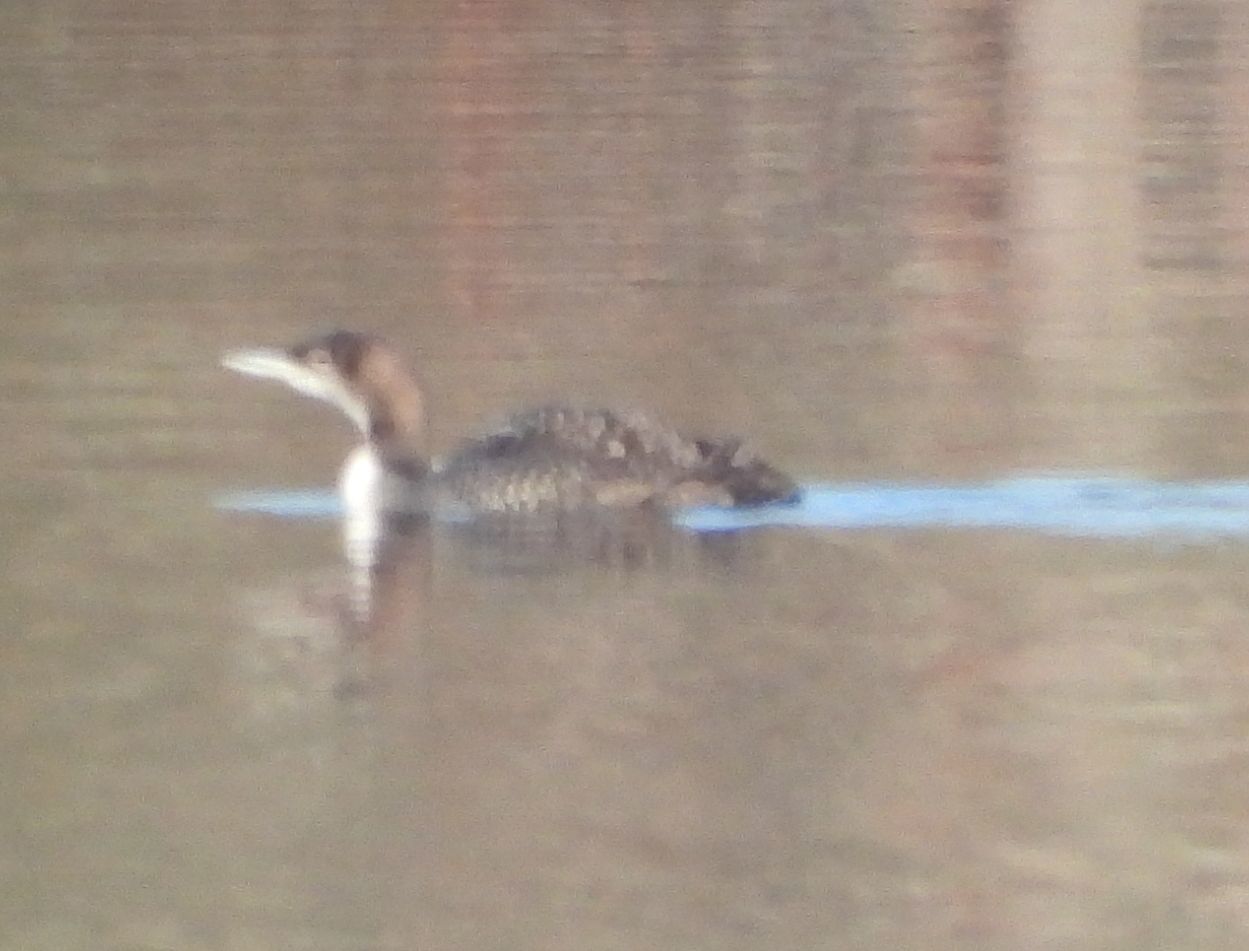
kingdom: Animalia
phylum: Chordata
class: Aves
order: Gaviiformes
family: Gaviidae
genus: Gavia
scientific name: Gavia immer
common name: Common loon
